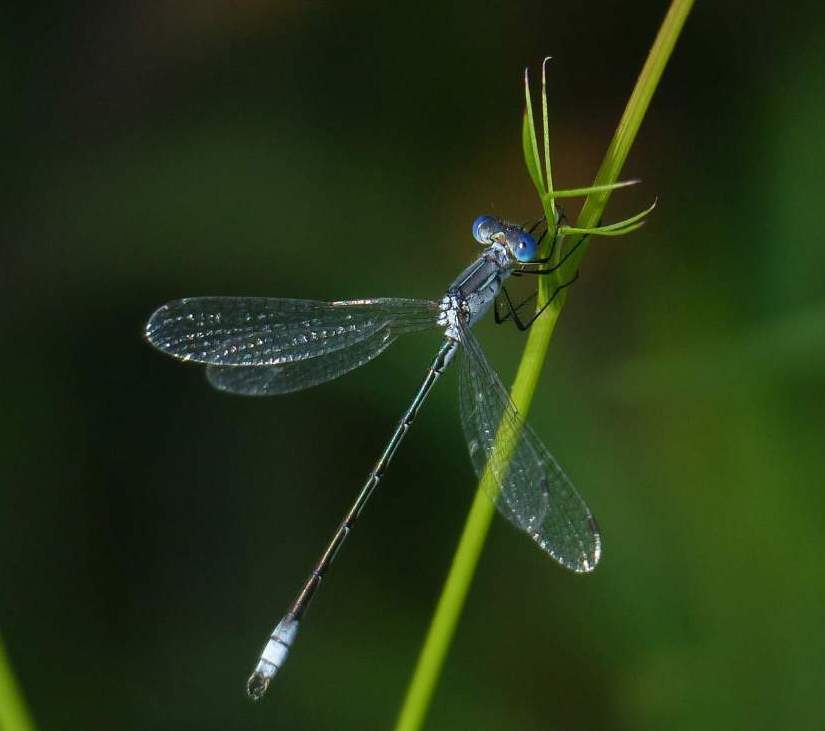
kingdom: Animalia
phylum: Arthropoda
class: Insecta
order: Odonata
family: Lestidae
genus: Lestes
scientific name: Lestes unguiculatus
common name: Lyre-tipped spreadwing
